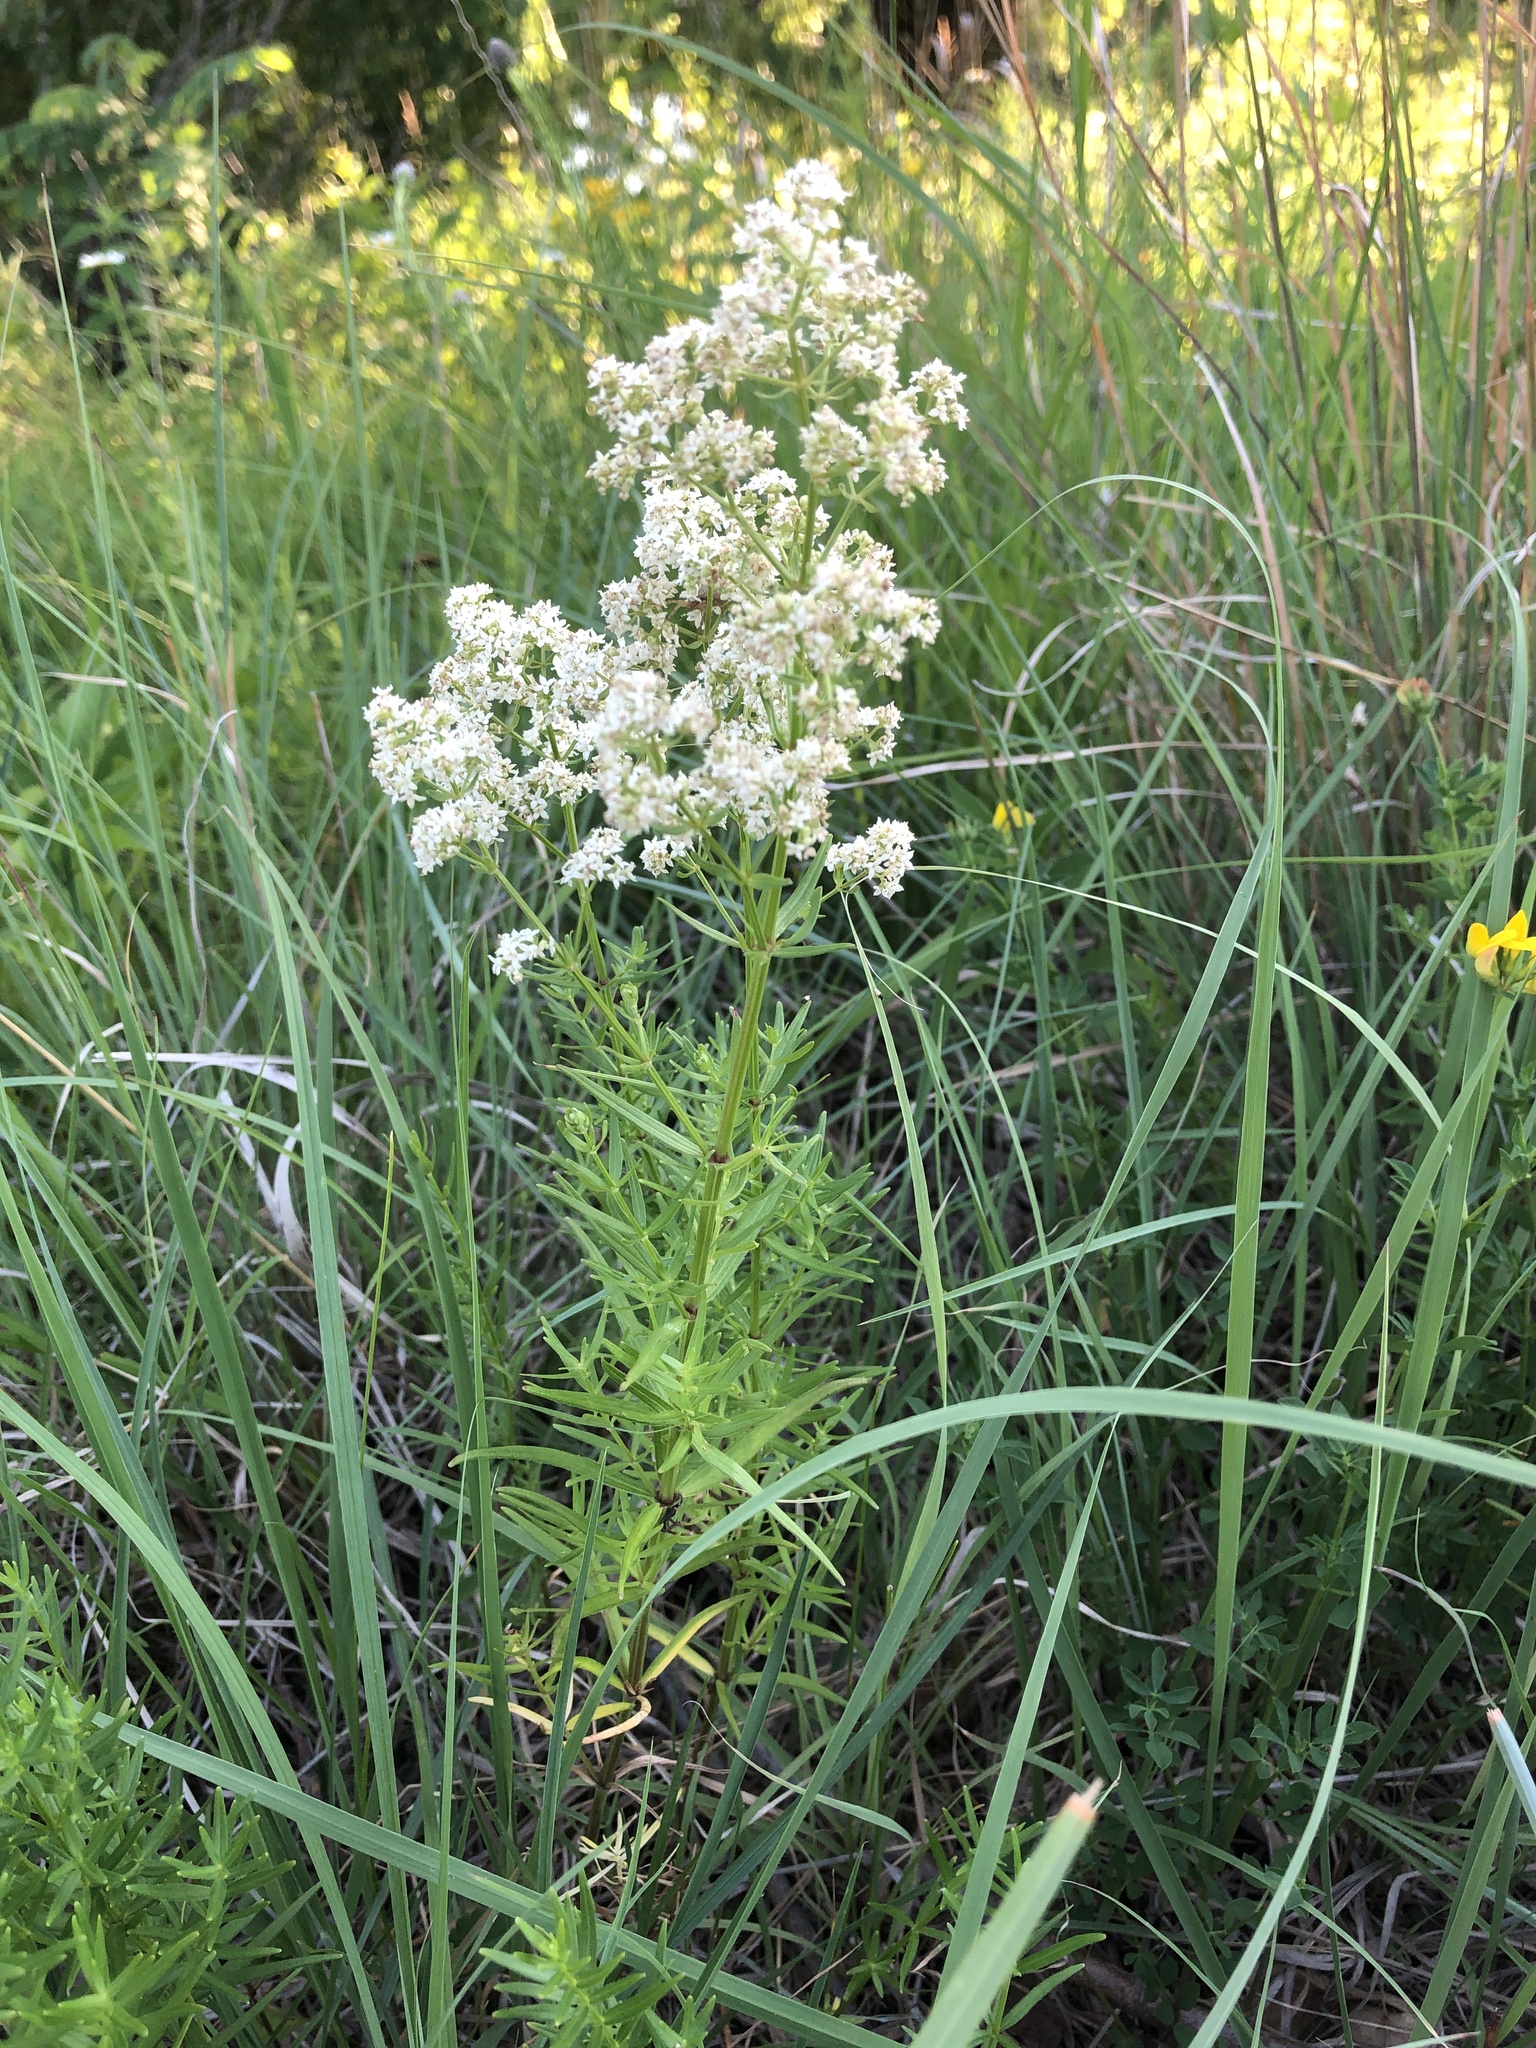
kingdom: Plantae
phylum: Tracheophyta
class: Magnoliopsida
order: Gentianales
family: Rubiaceae
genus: Galium
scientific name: Galium boreale
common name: Northern bedstraw
